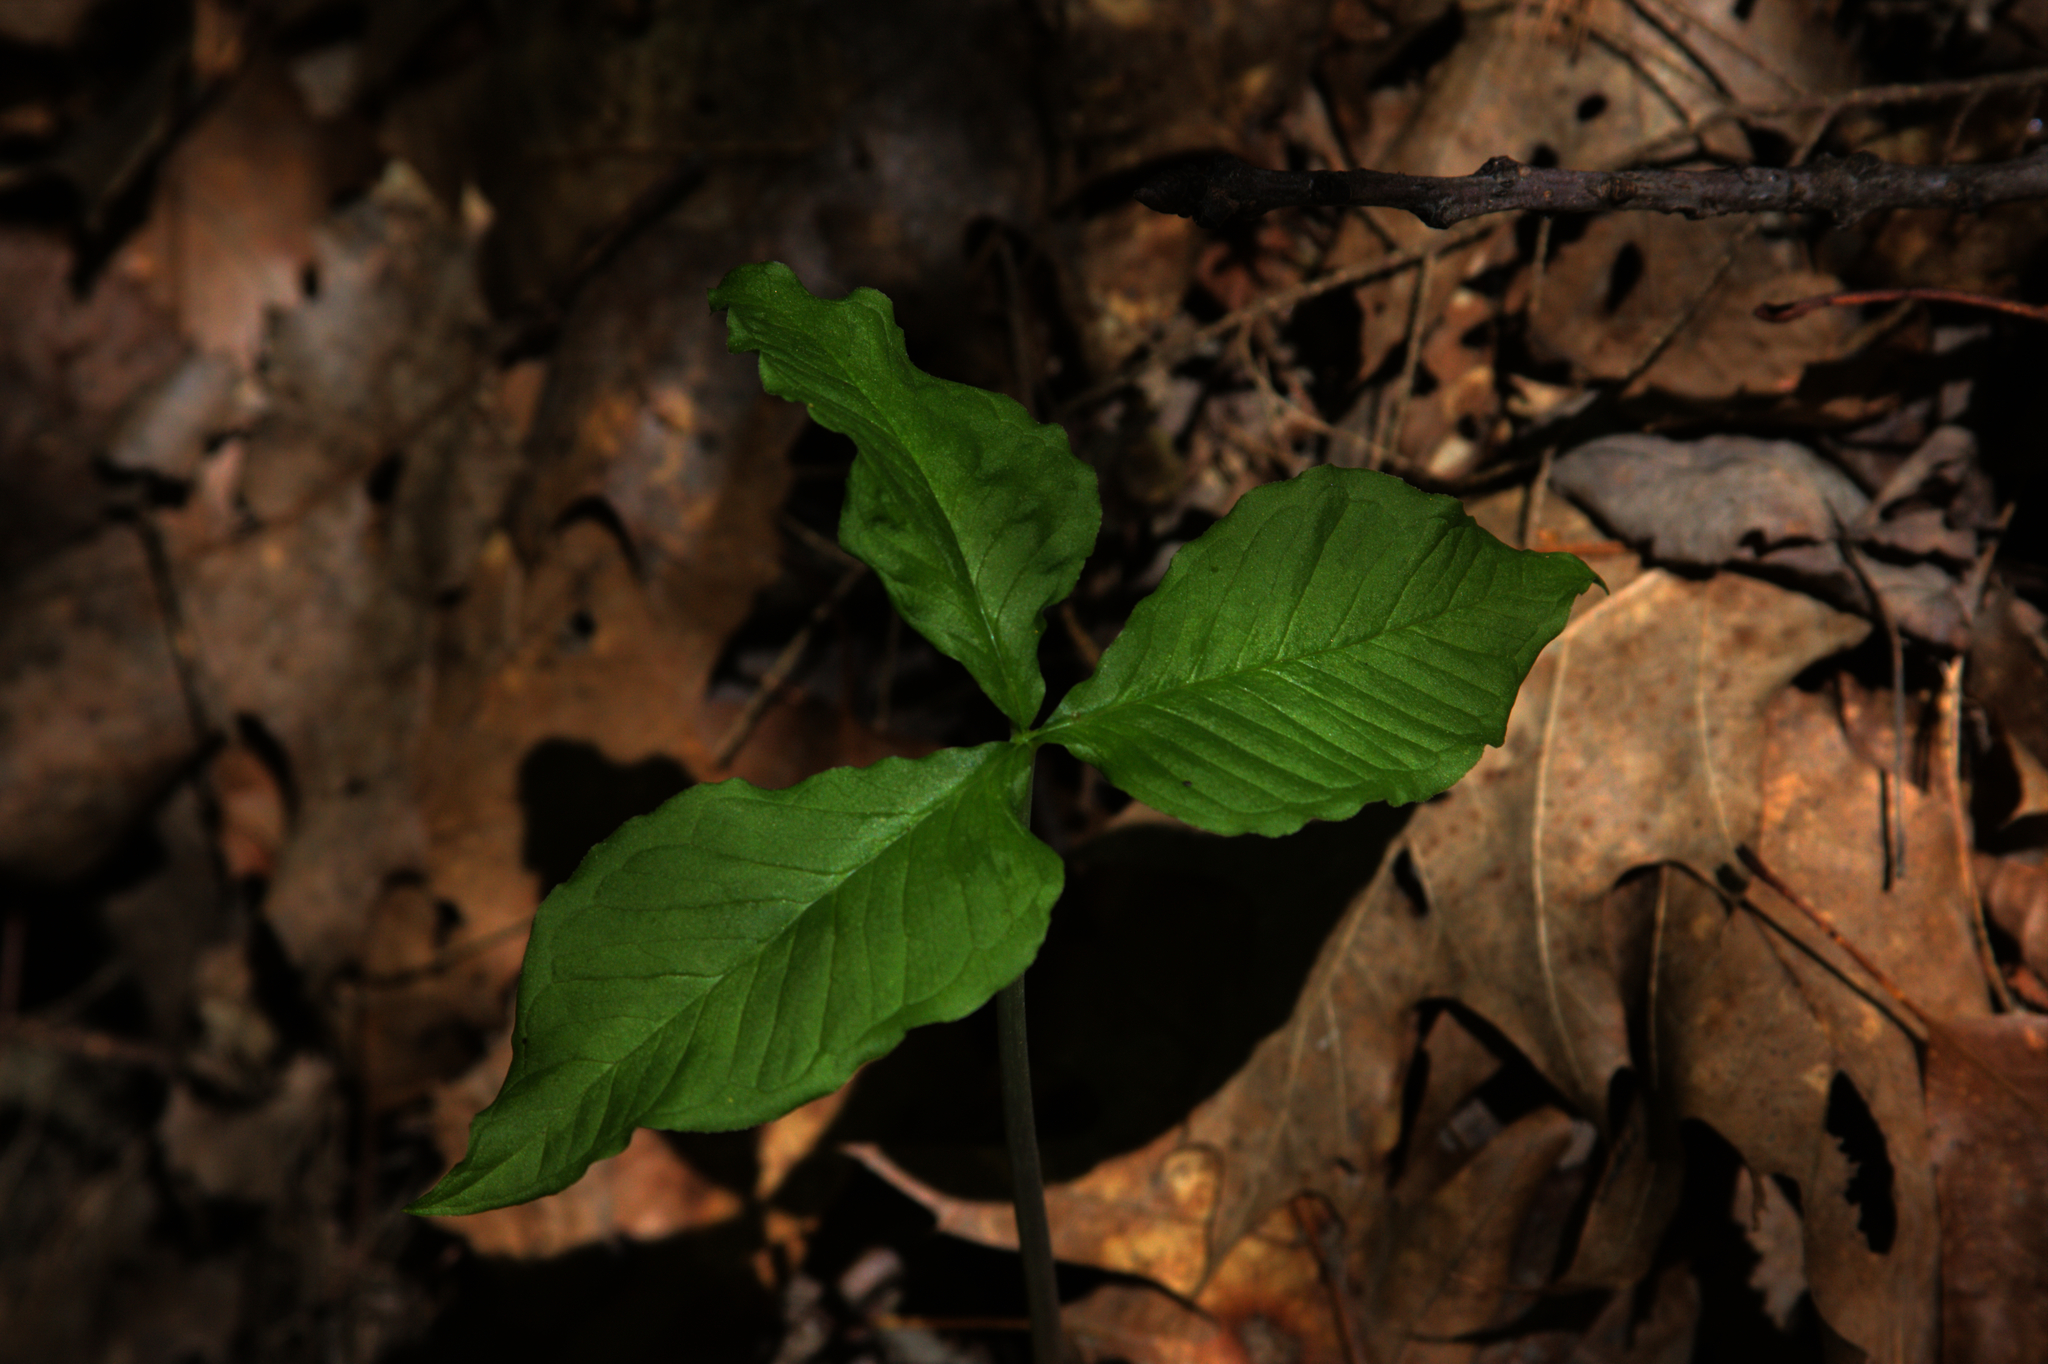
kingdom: Plantae
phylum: Tracheophyta
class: Liliopsida
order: Alismatales
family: Araceae
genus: Arisaema
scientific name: Arisaema triphyllum
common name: Jack-in-the-pulpit
